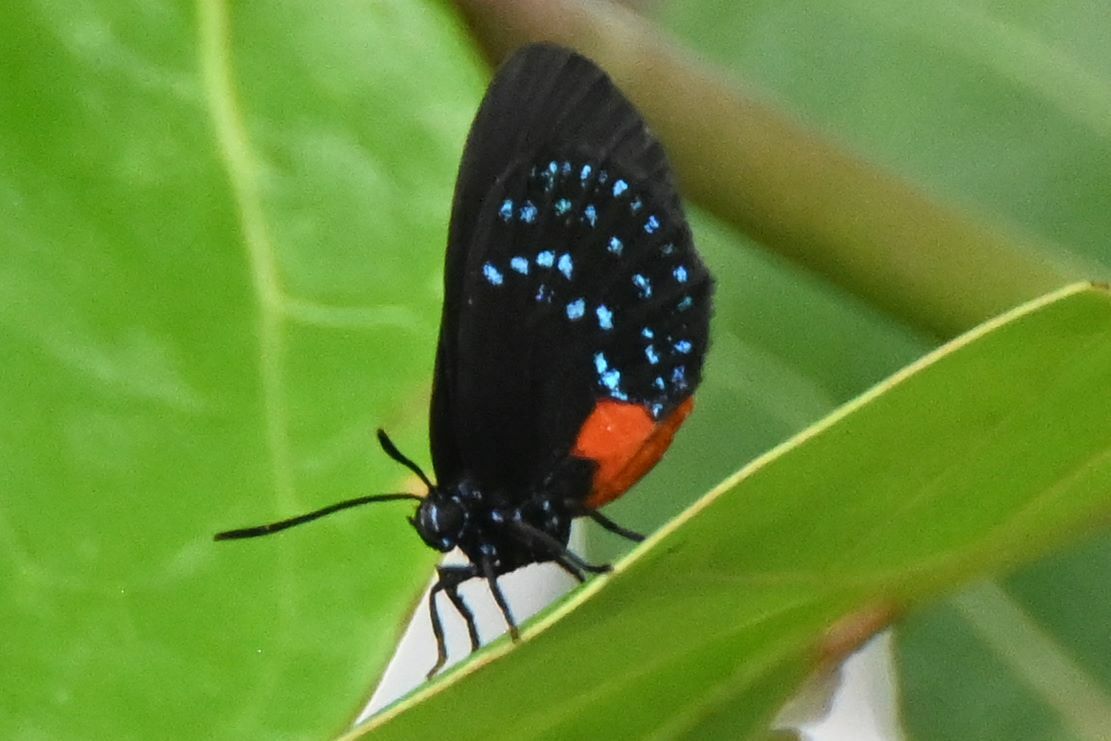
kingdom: Animalia
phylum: Arthropoda
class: Insecta
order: Lepidoptera
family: Lycaenidae
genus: Eumaeus
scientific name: Eumaeus atala
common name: Atala
